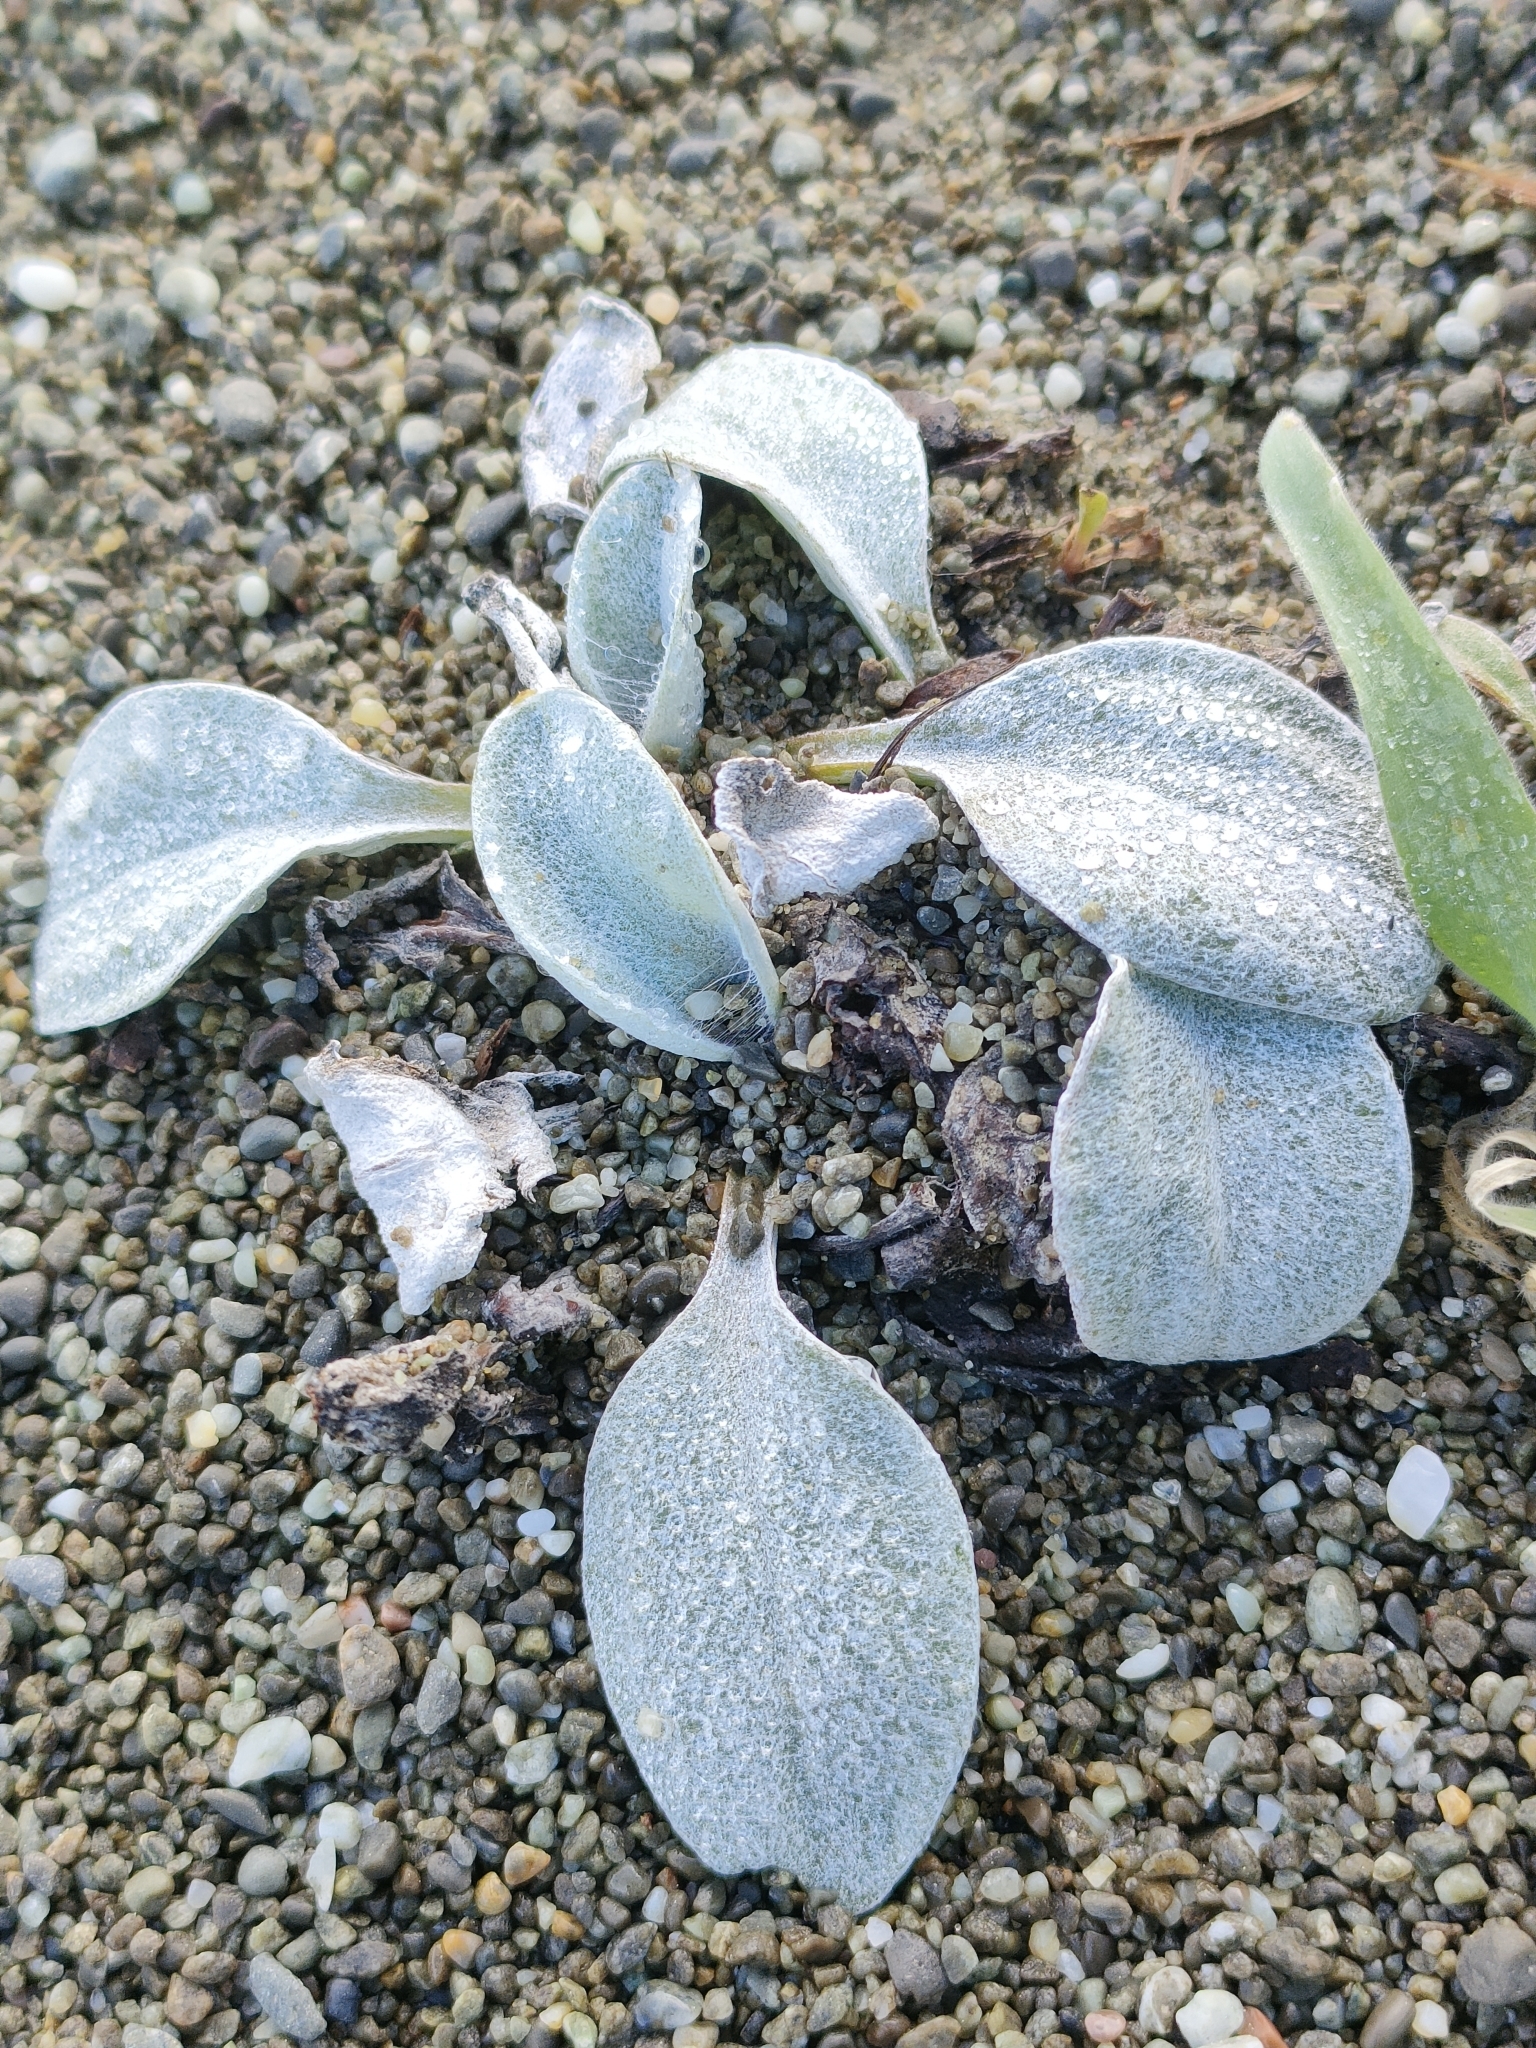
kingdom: Plantae
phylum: Tracheophyta
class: Magnoliopsida
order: Asterales
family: Asteraceae
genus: Craspedia
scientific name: Craspedia
